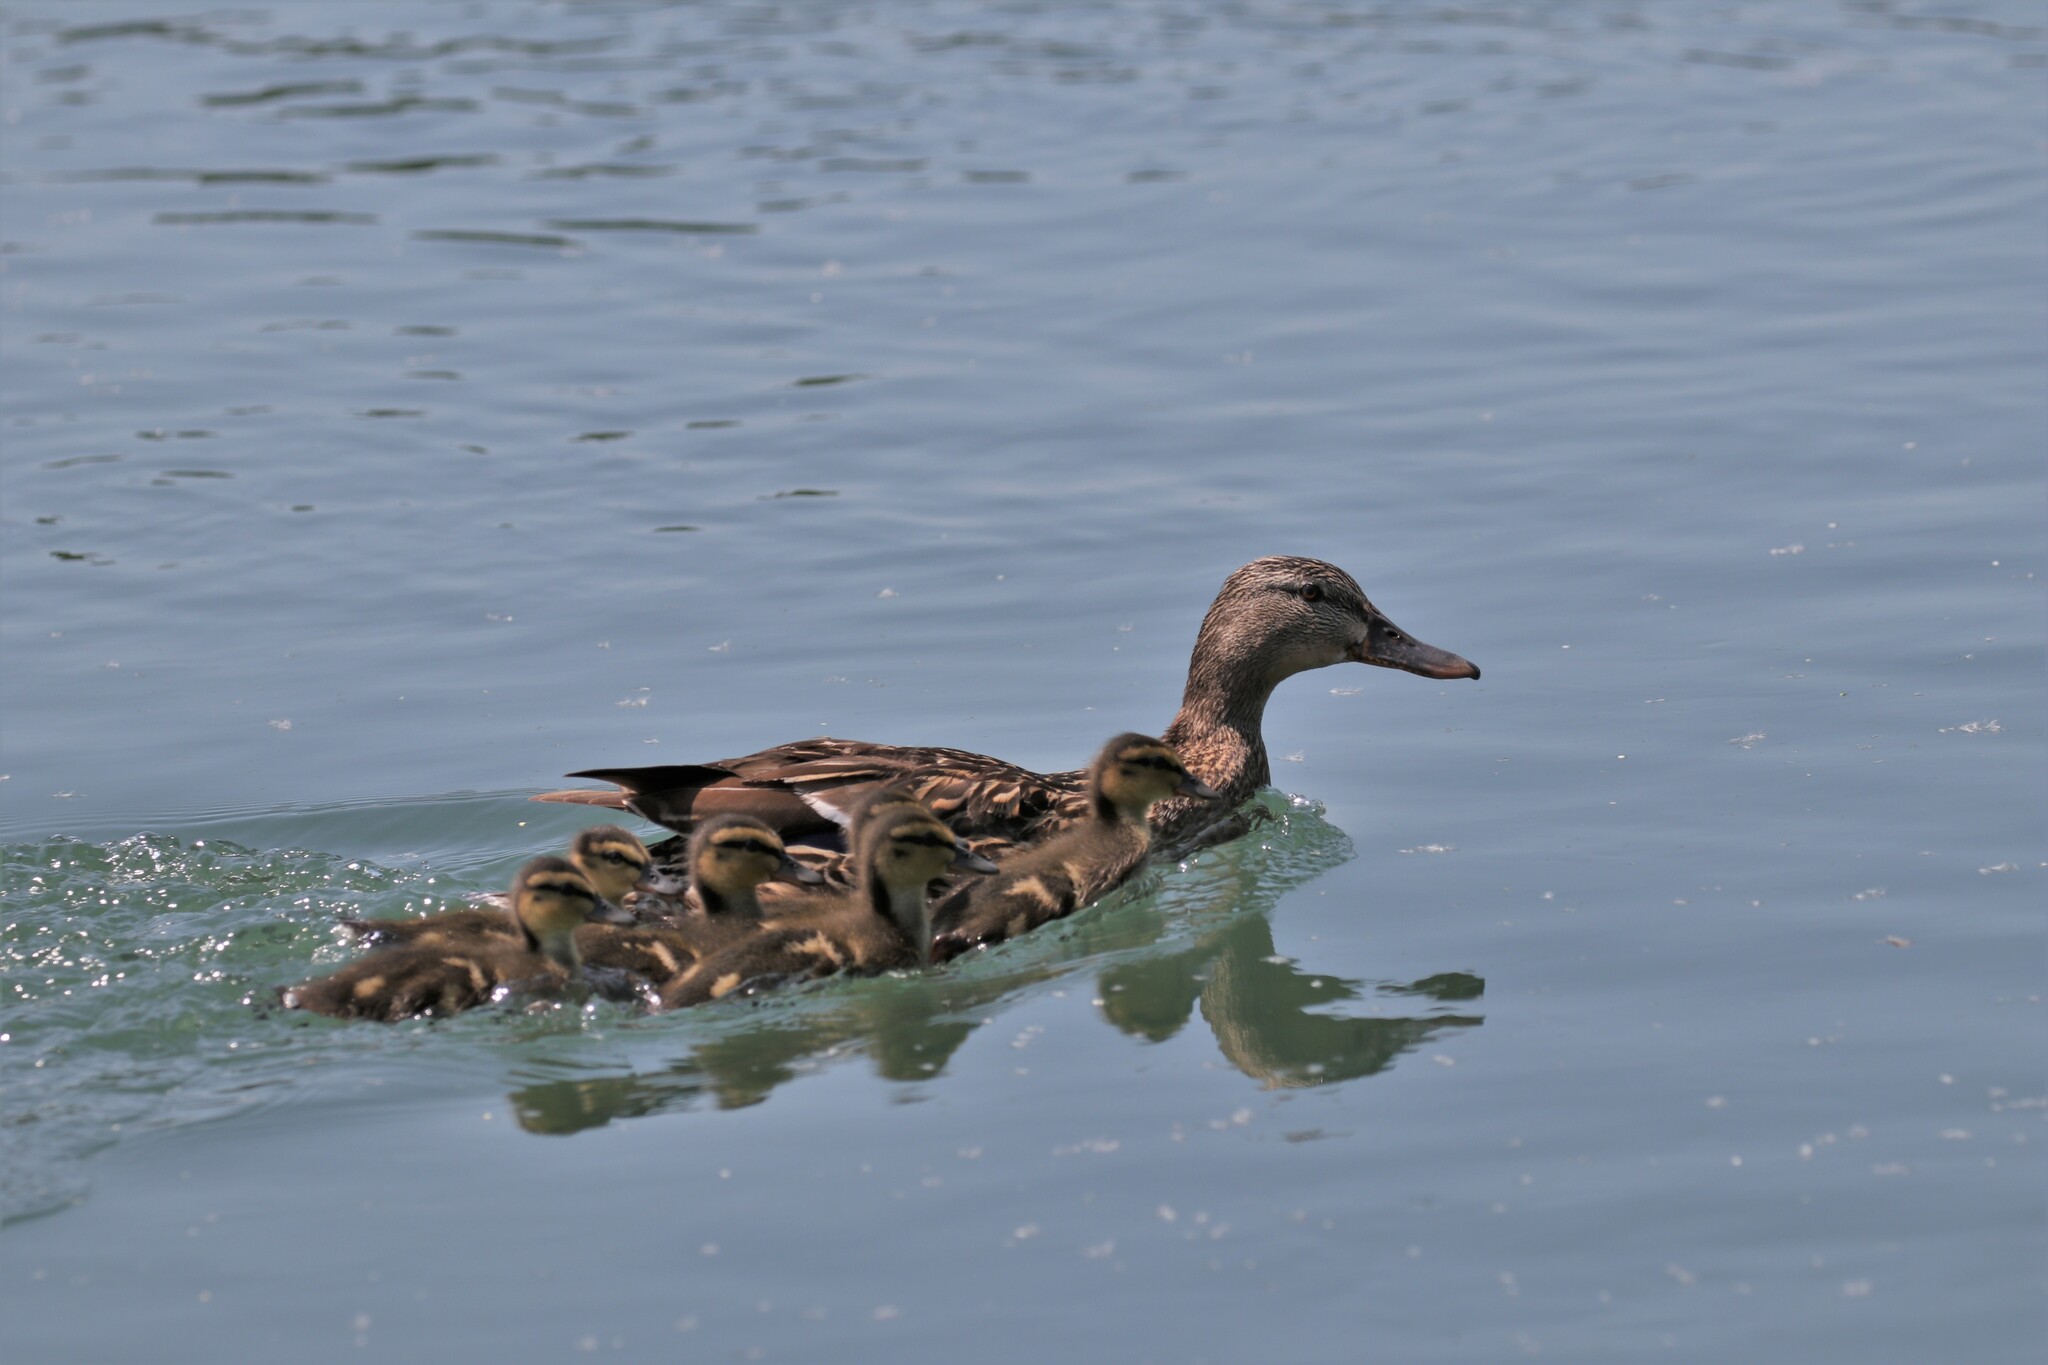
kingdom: Animalia
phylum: Chordata
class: Aves
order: Anseriformes
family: Anatidae
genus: Anas
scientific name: Anas platyrhynchos
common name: Mallard
